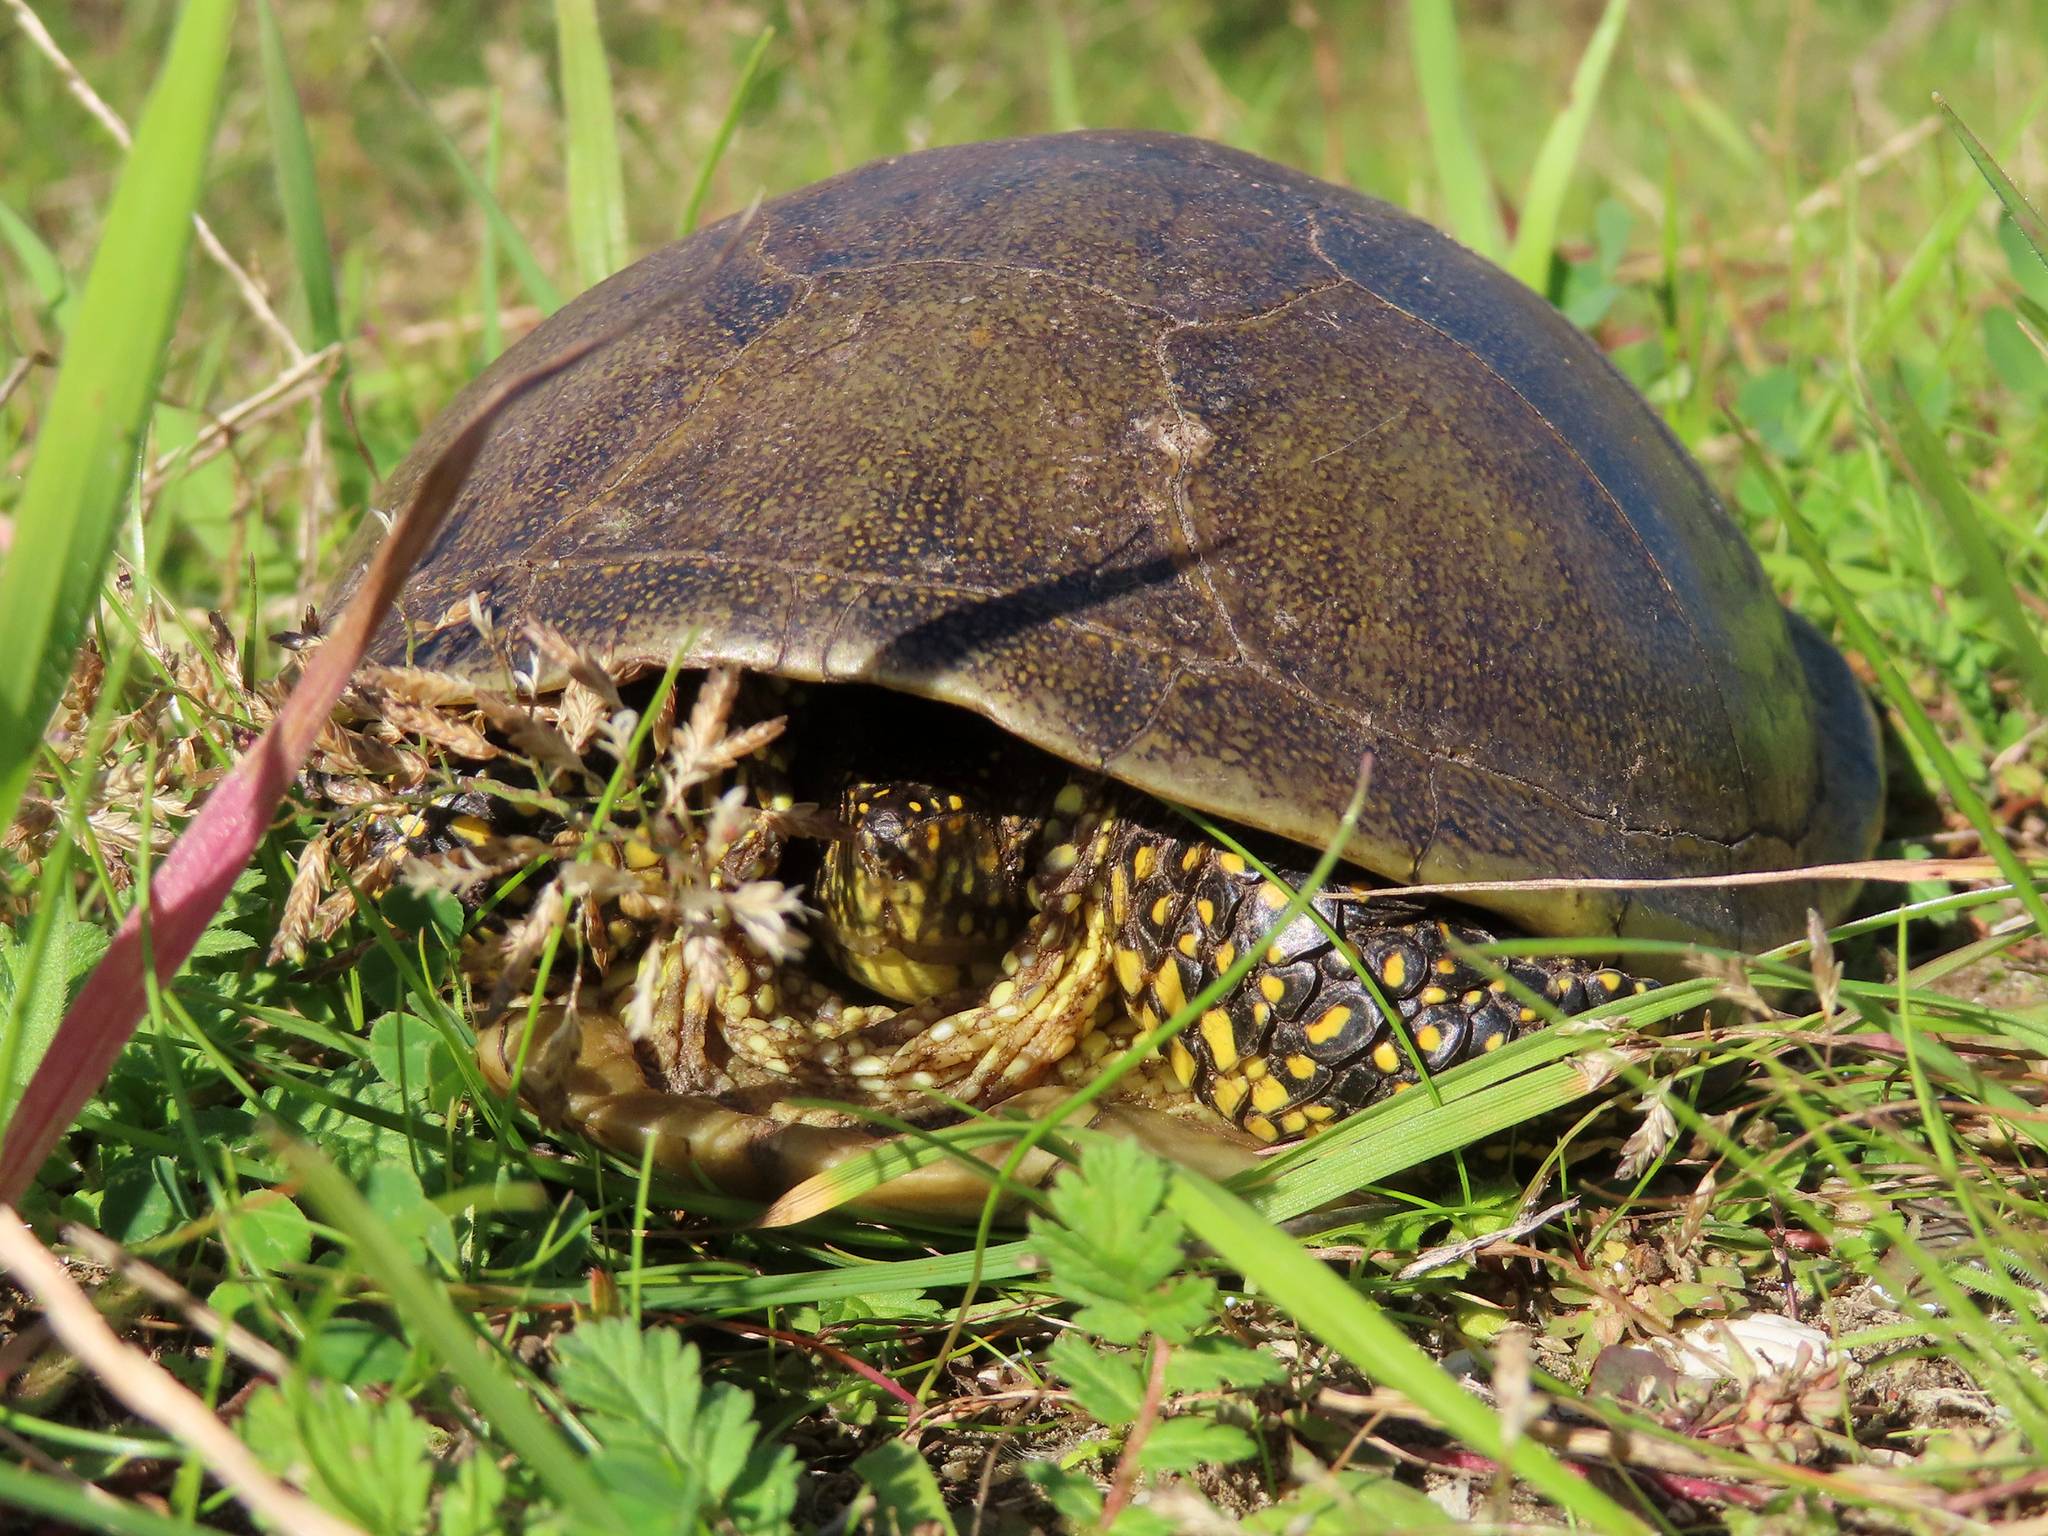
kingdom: Animalia
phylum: Chordata
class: Testudines
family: Emydidae
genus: Emys
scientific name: Emys orbicularis
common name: European pond turtle
